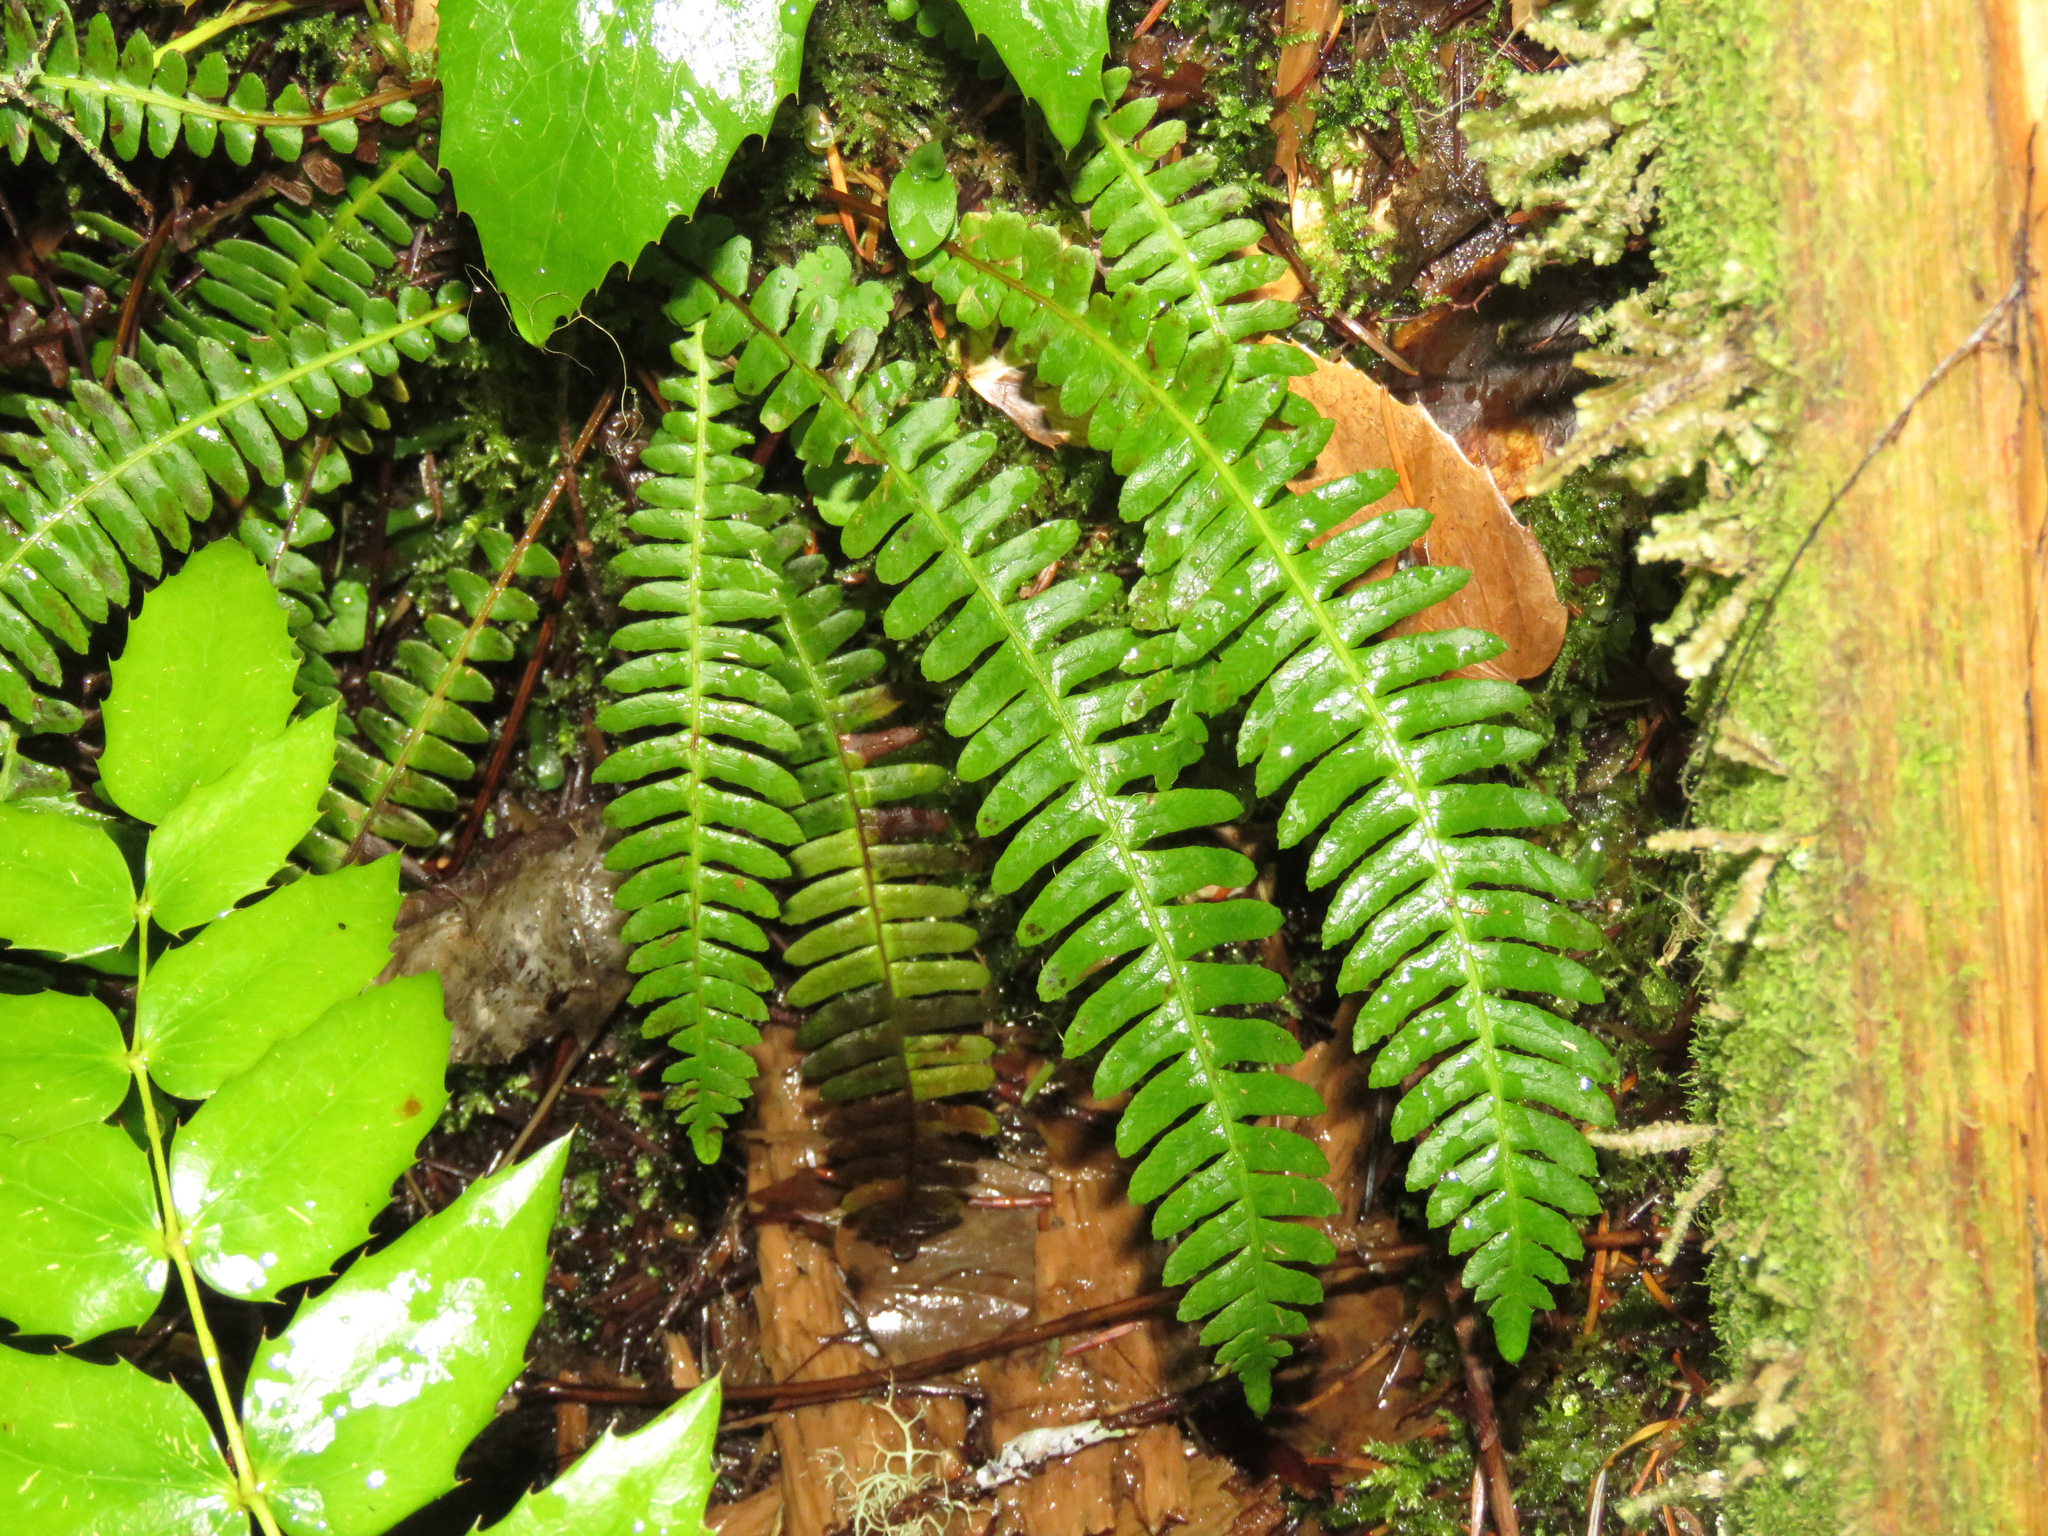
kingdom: Plantae
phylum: Tracheophyta
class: Polypodiopsida
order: Polypodiales
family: Blechnaceae
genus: Struthiopteris
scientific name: Struthiopteris spicant
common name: Deer fern
